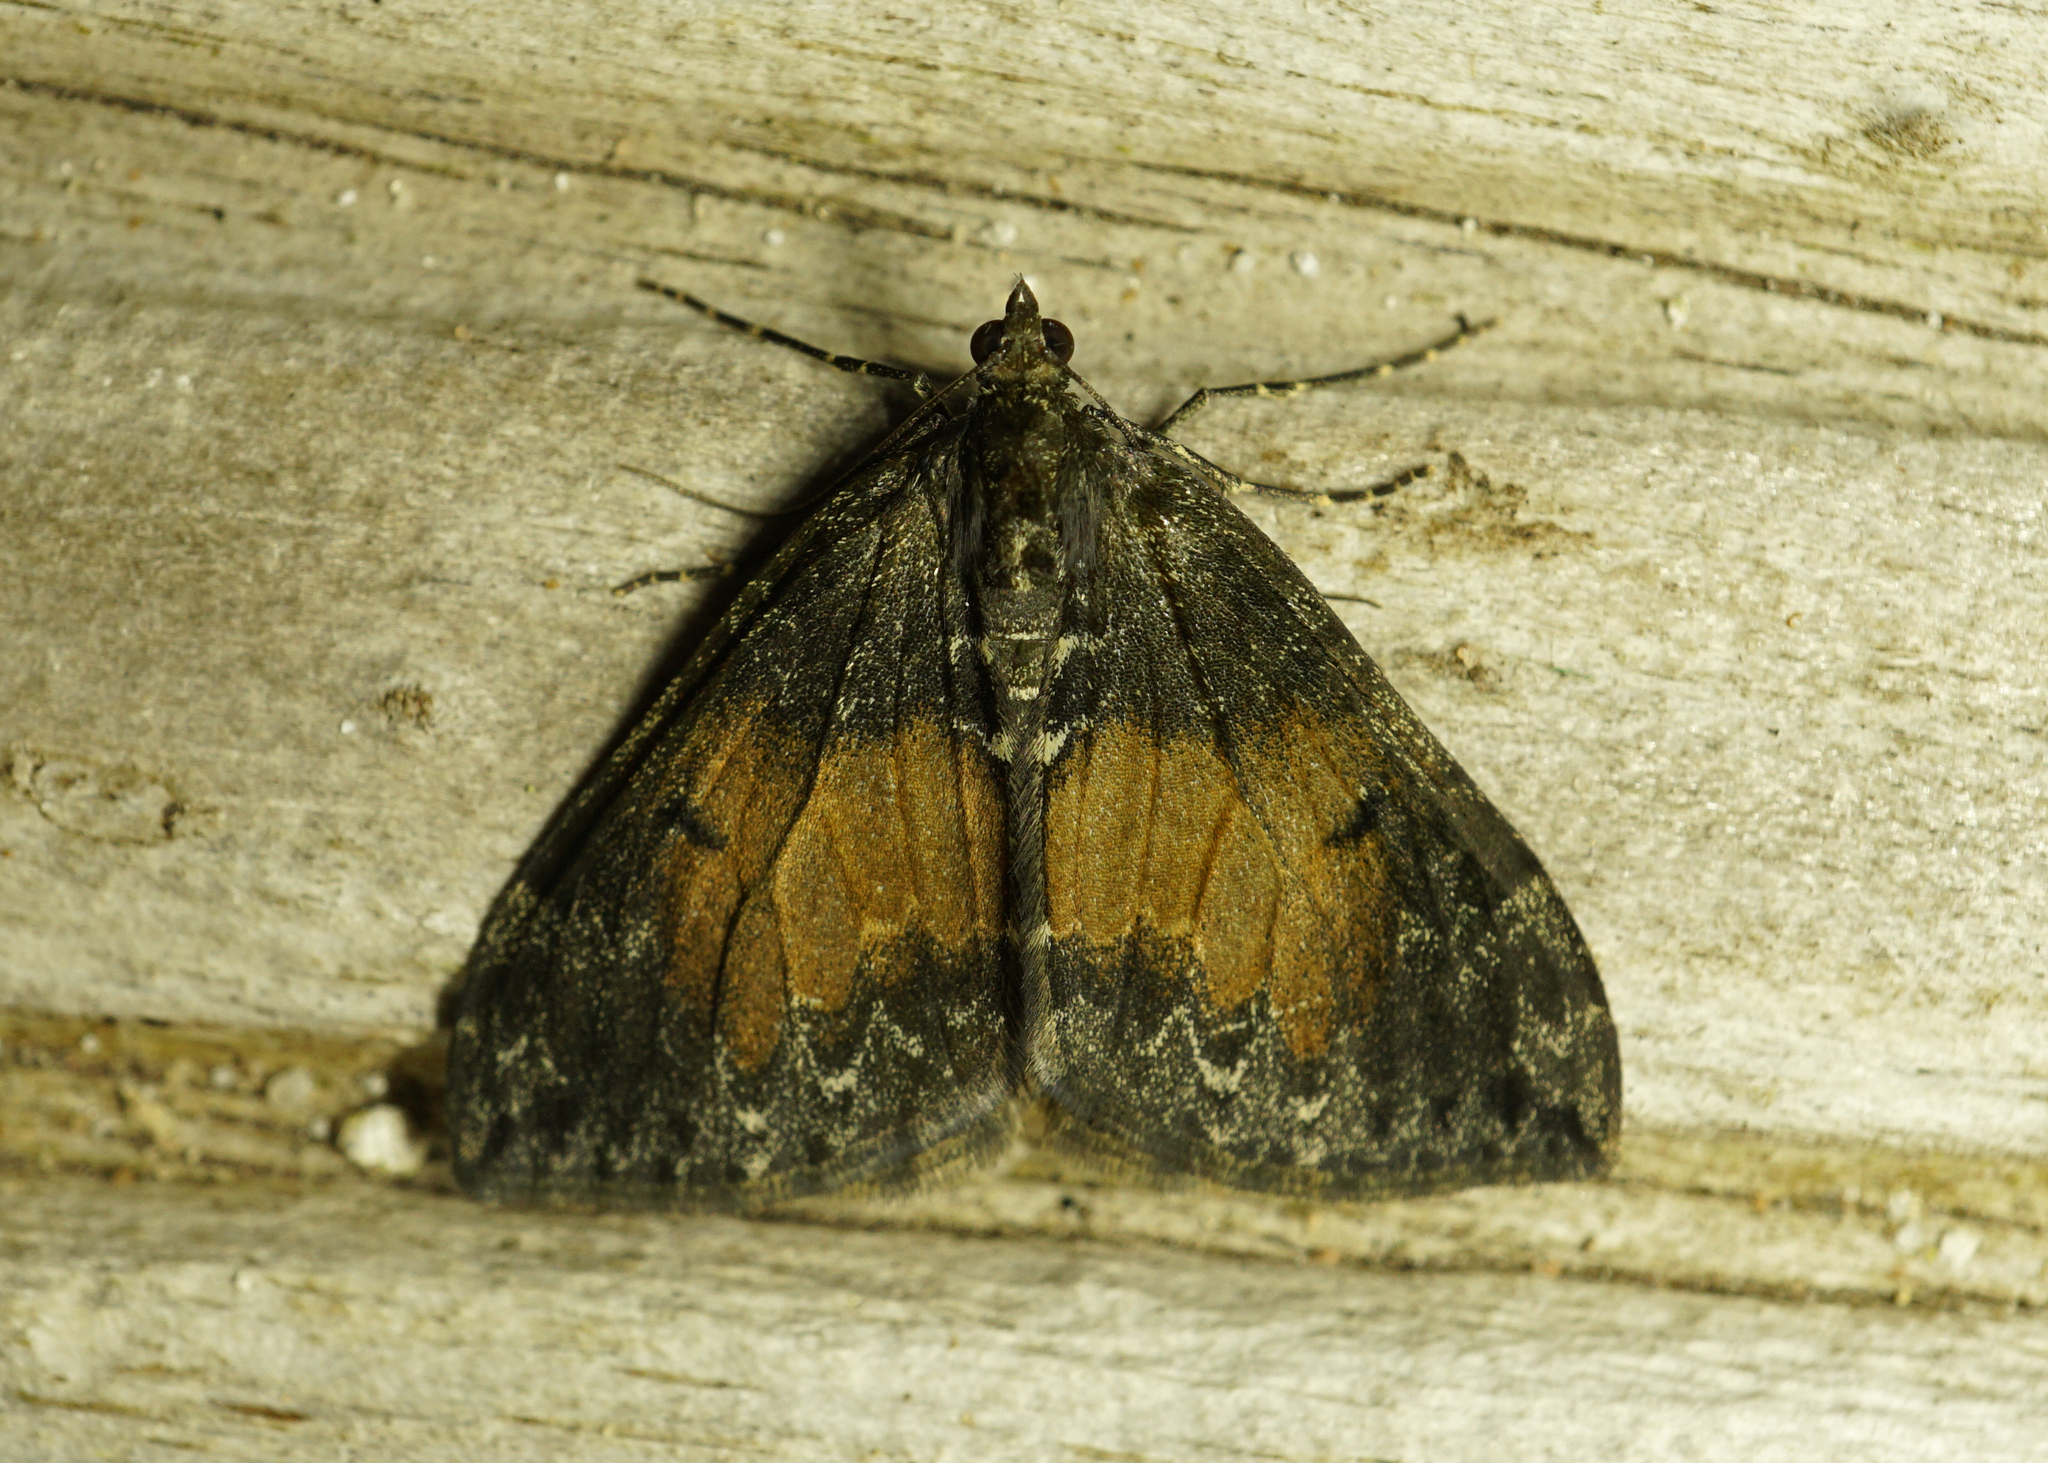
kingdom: Animalia
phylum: Arthropoda
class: Insecta
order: Lepidoptera
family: Geometridae
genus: Dysstroma
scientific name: Dysstroma truncata
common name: Common marbled carpet
